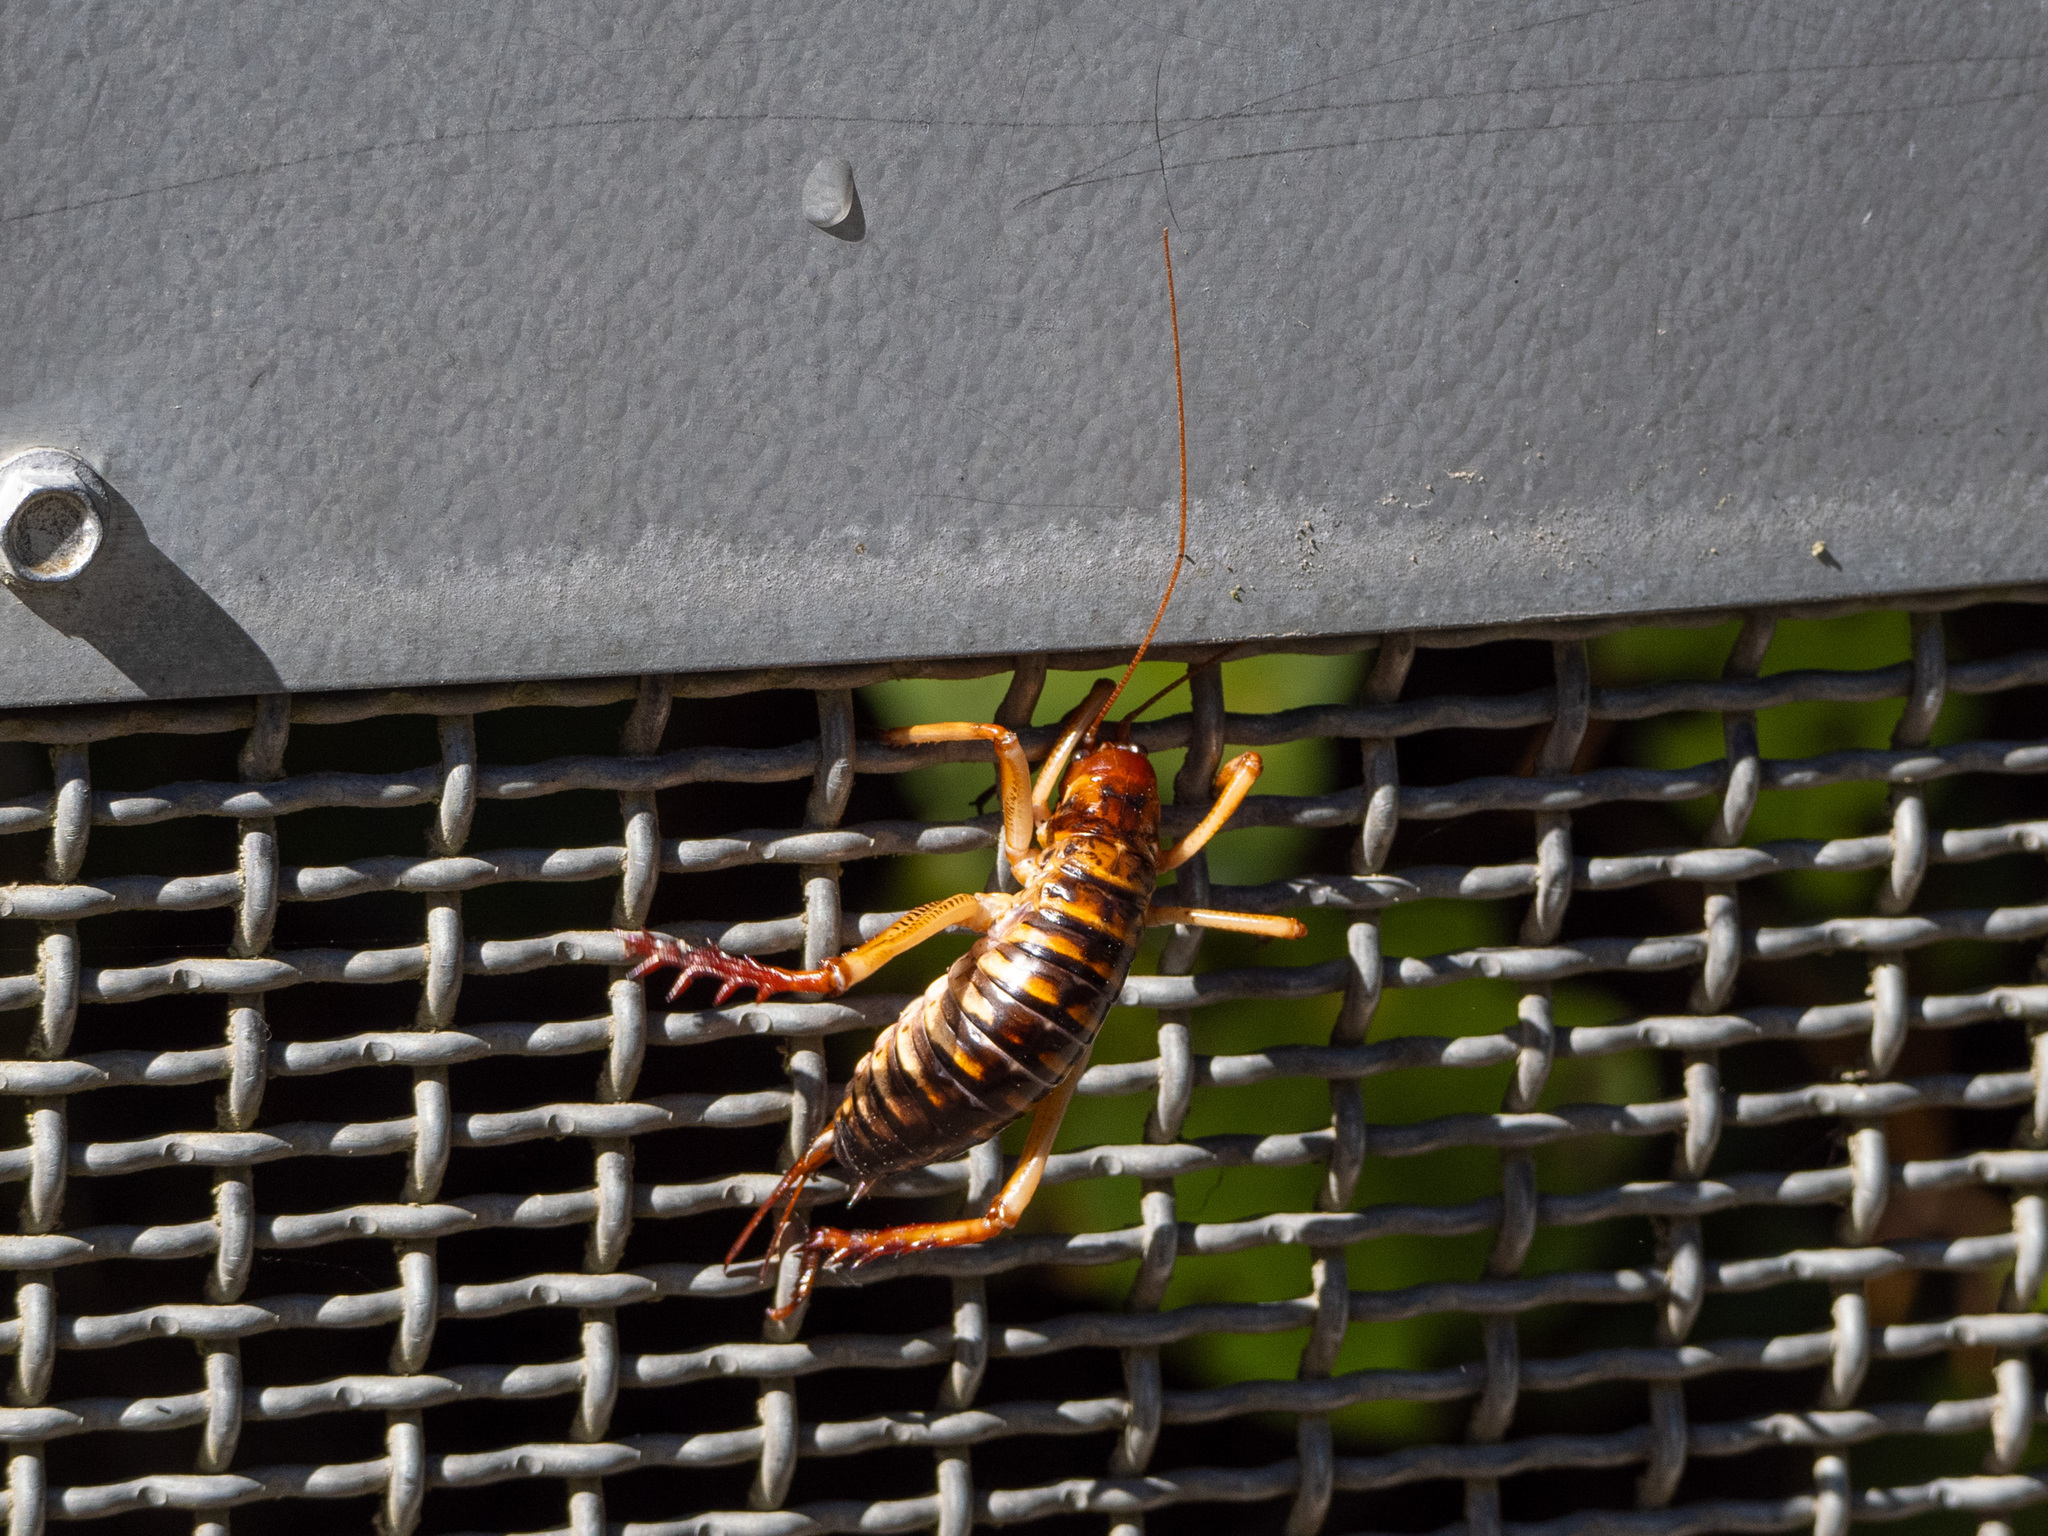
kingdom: Animalia
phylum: Arthropoda
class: Insecta
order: Orthoptera
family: Anostostomatidae
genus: Hemideina
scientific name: Hemideina crassidens
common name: Wellington tree weta
